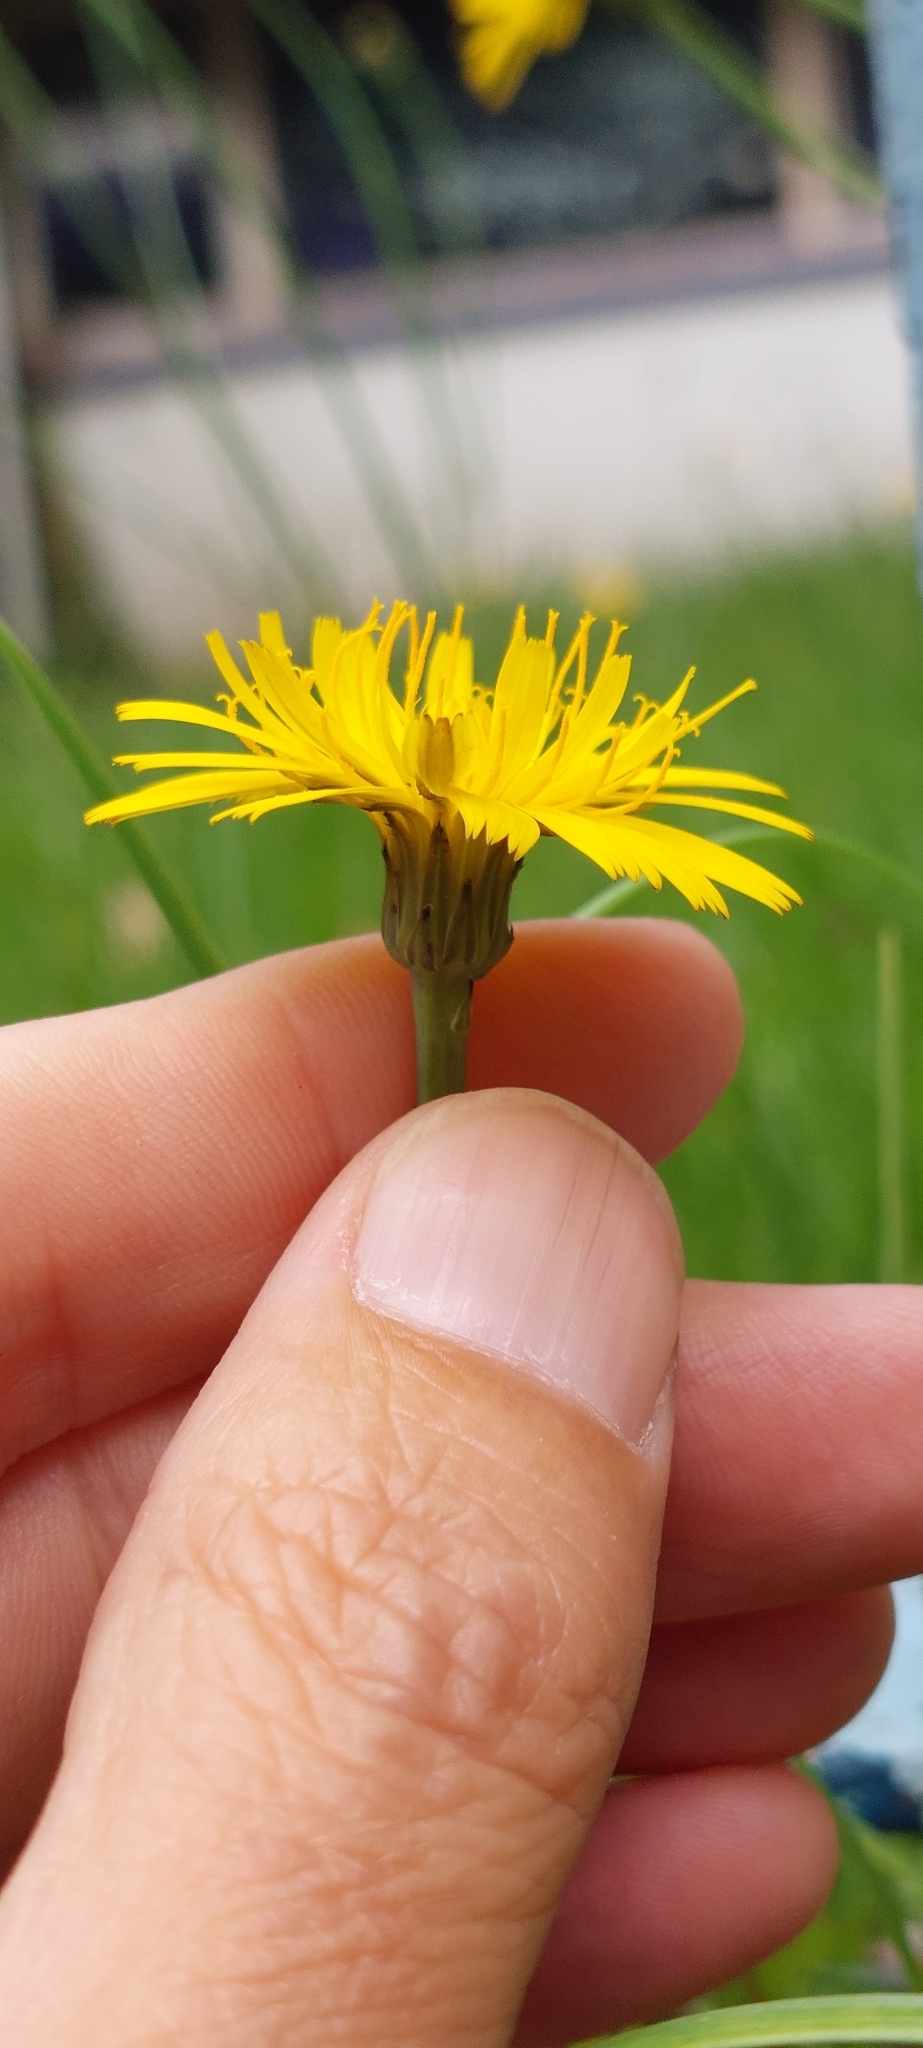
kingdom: Plantae
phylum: Tracheophyta
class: Magnoliopsida
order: Asterales
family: Asteraceae
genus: Hypochaeris
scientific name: Hypochaeris radicata
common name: Flatweed
